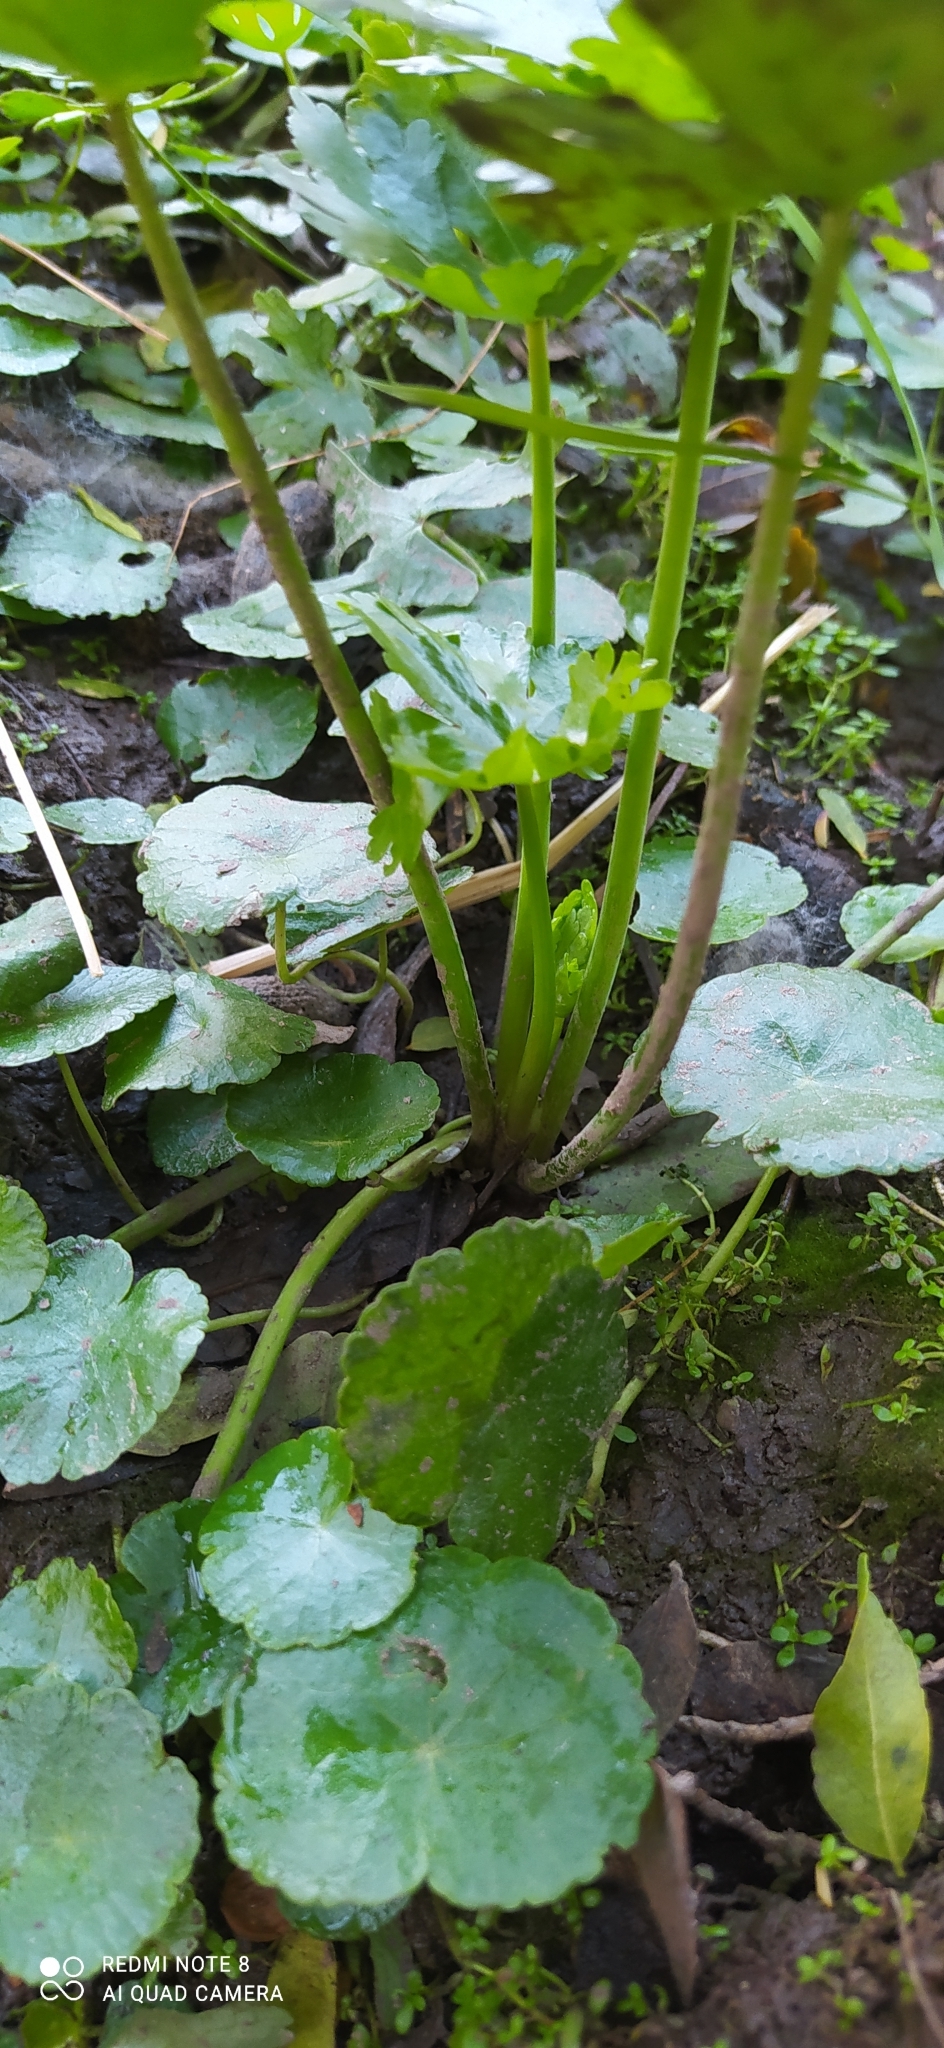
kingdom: Plantae
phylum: Tracheophyta
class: Magnoliopsida
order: Ranunculales
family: Ranunculaceae
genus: Ranunculus
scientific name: Ranunculus apiifolius
